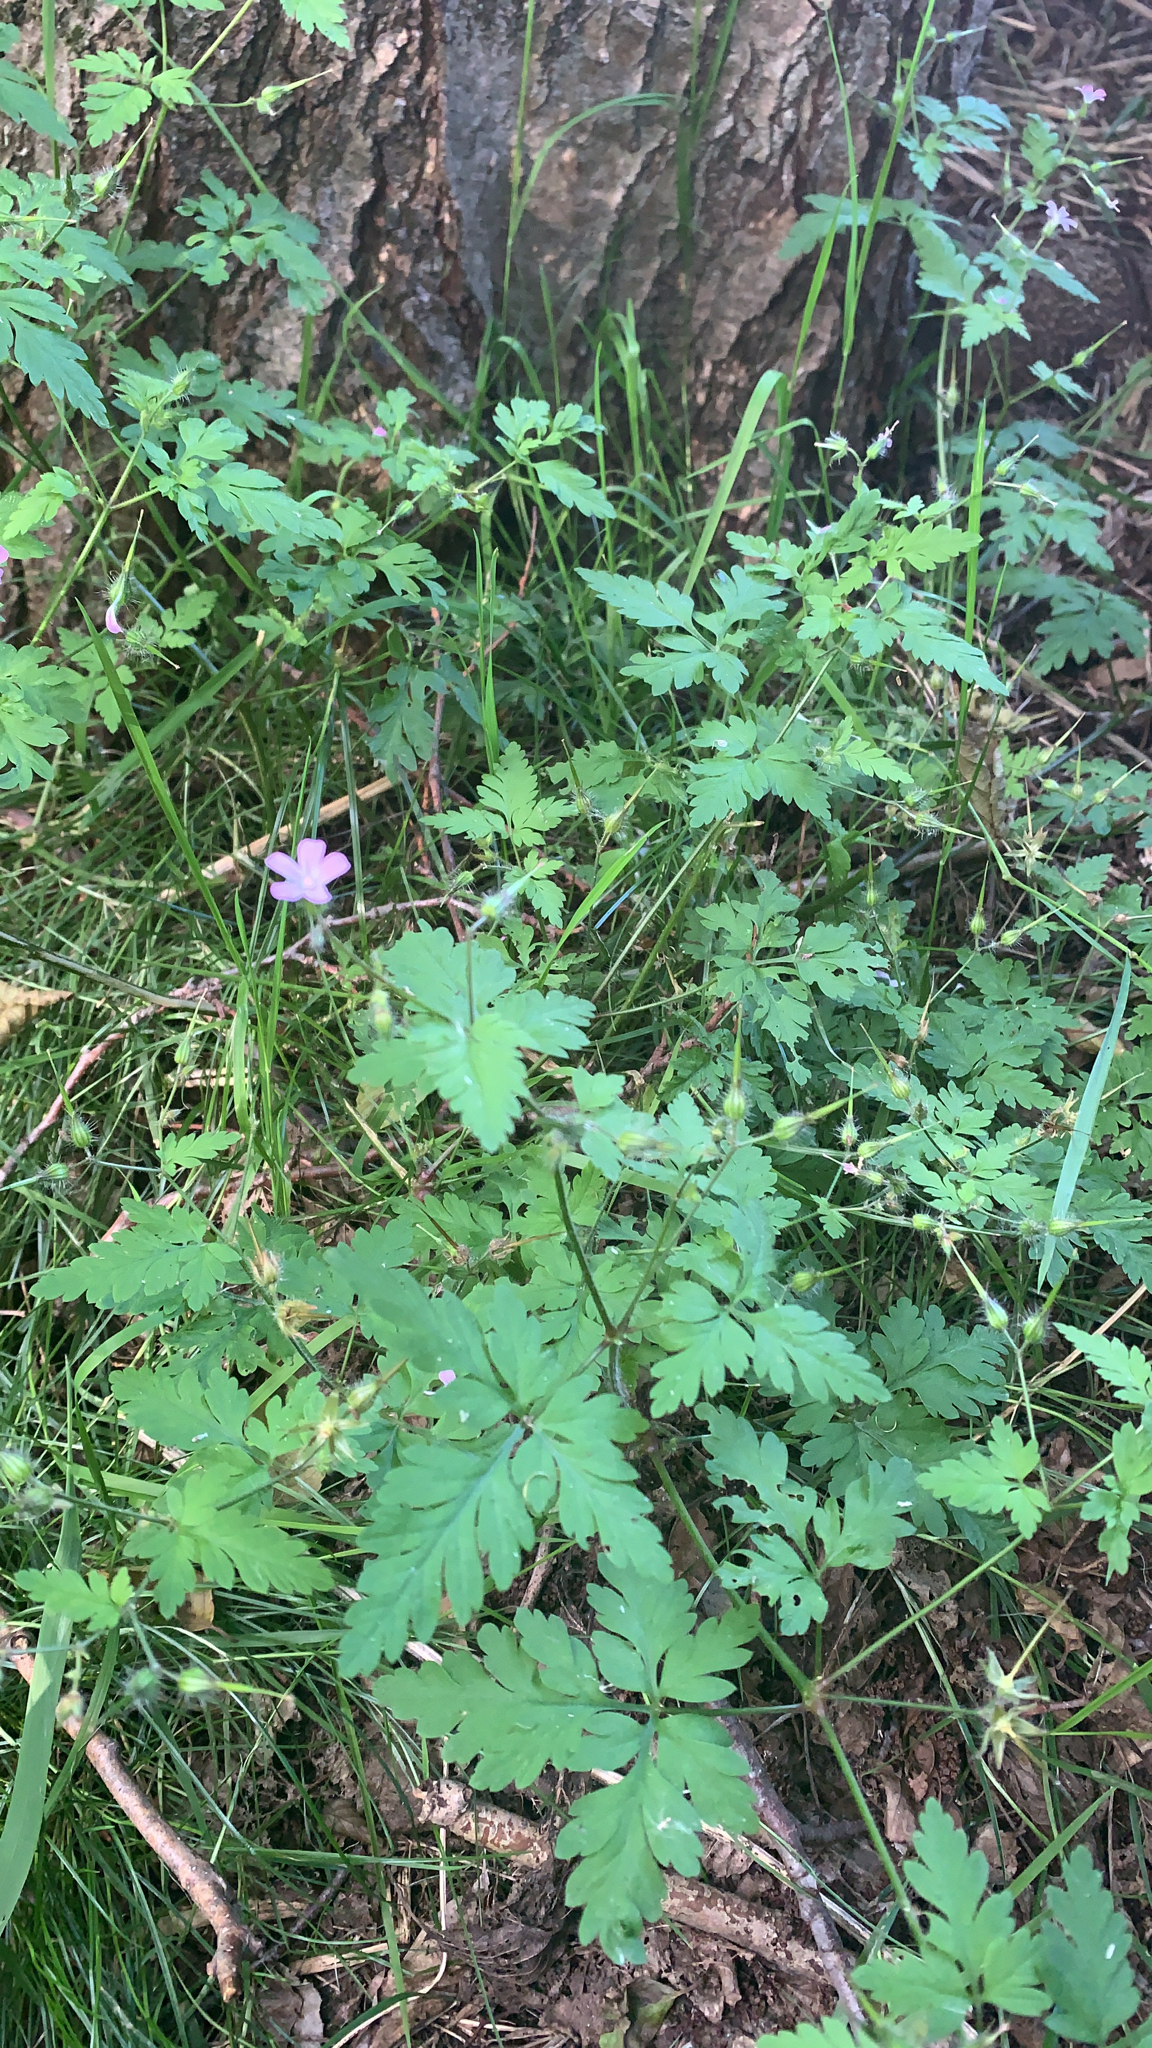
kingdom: Plantae
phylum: Tracheophyta
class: Magnoliopsida
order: Geraniales
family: Geraniaceae
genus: Geranium
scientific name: Geranium robertianum
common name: Herb-robert
